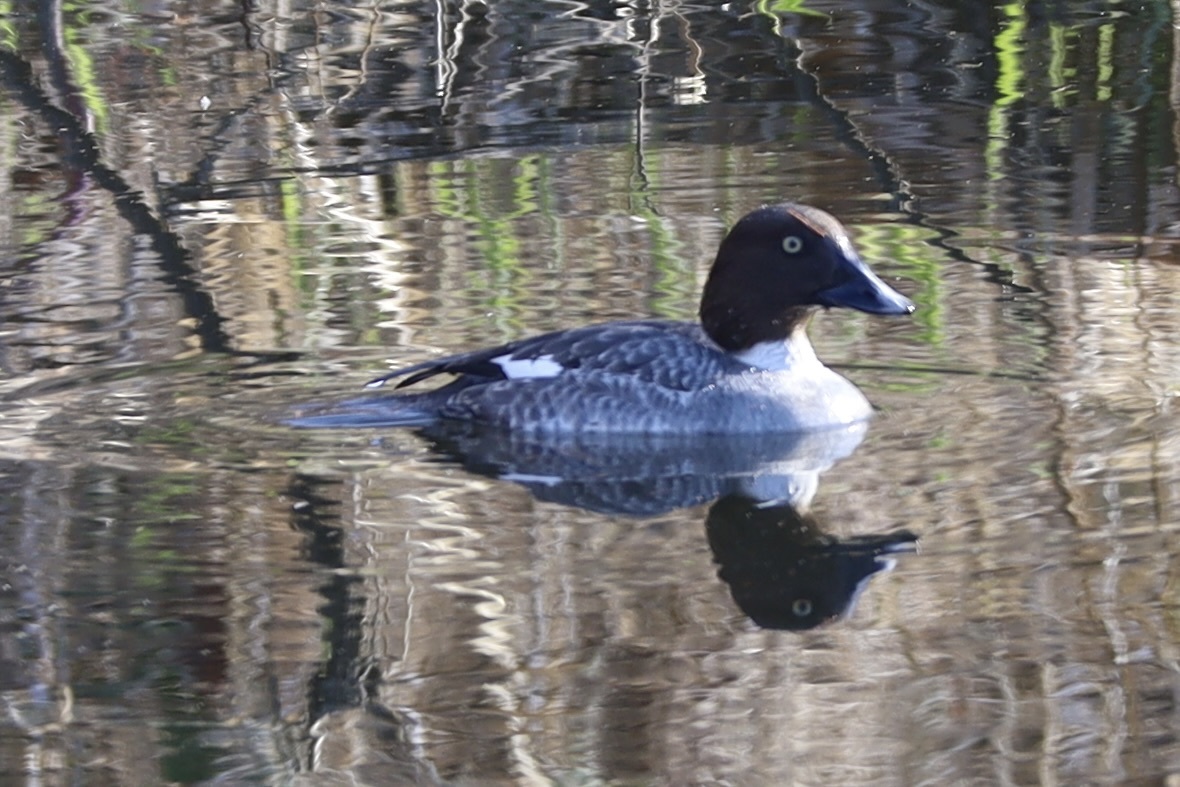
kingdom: Animalia
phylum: Chordata
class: Aves
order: Anseriformes
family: Anatidae
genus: Bucephala
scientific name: Bucephala clangula
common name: Common goldeneye
